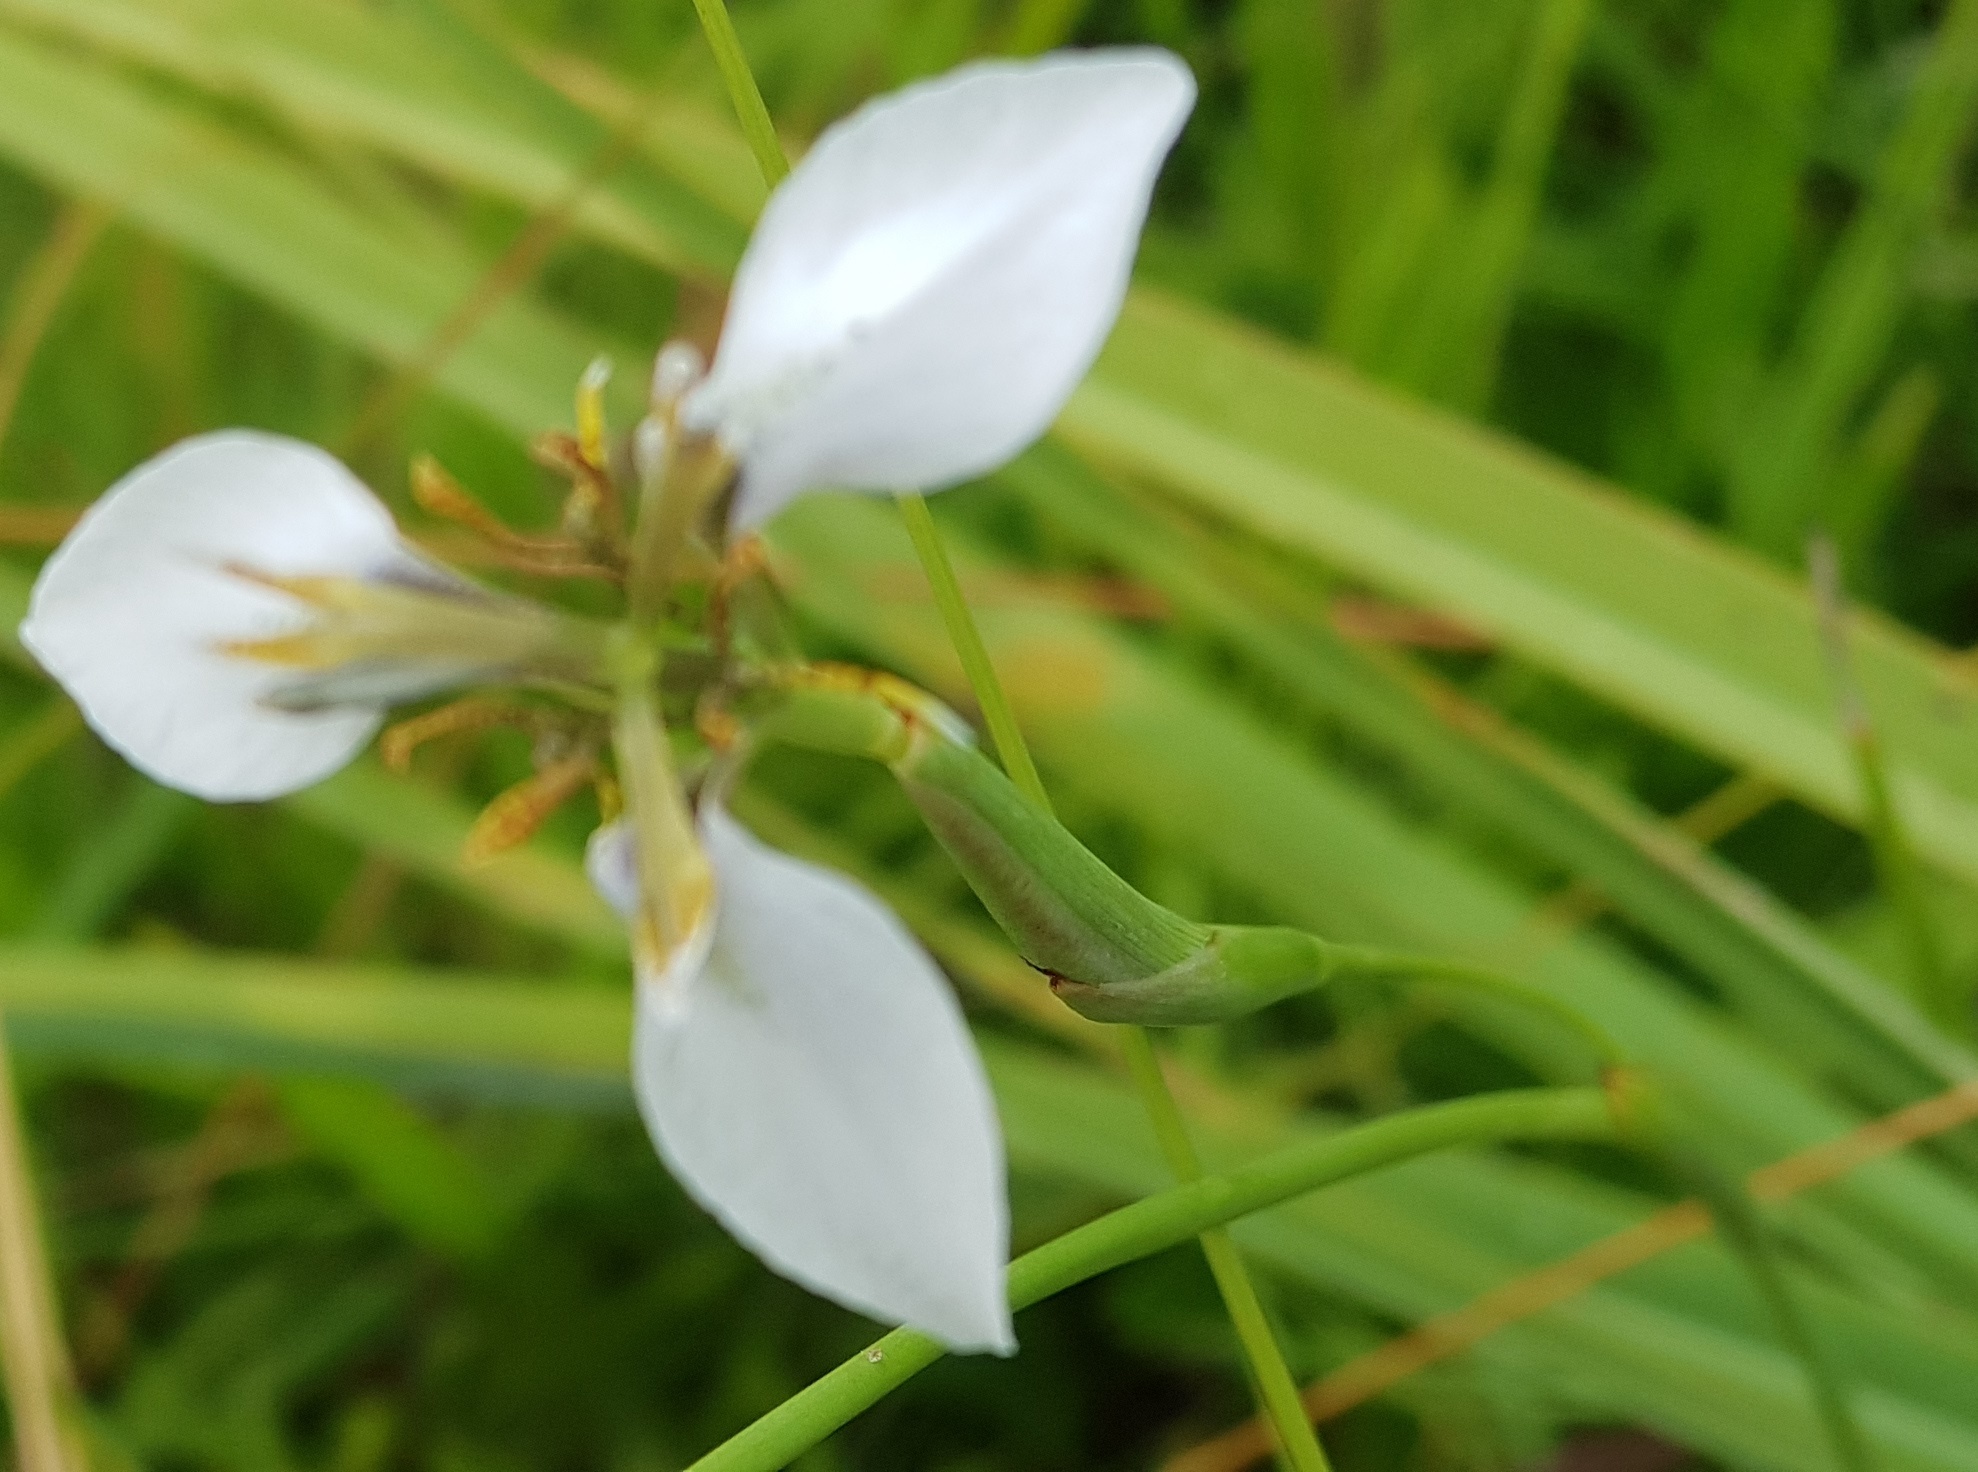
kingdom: Plantae
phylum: Tracheophyta
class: Liliopsida
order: Asparagales
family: Iridaceae
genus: Moraea
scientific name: Moraea brevistyla
